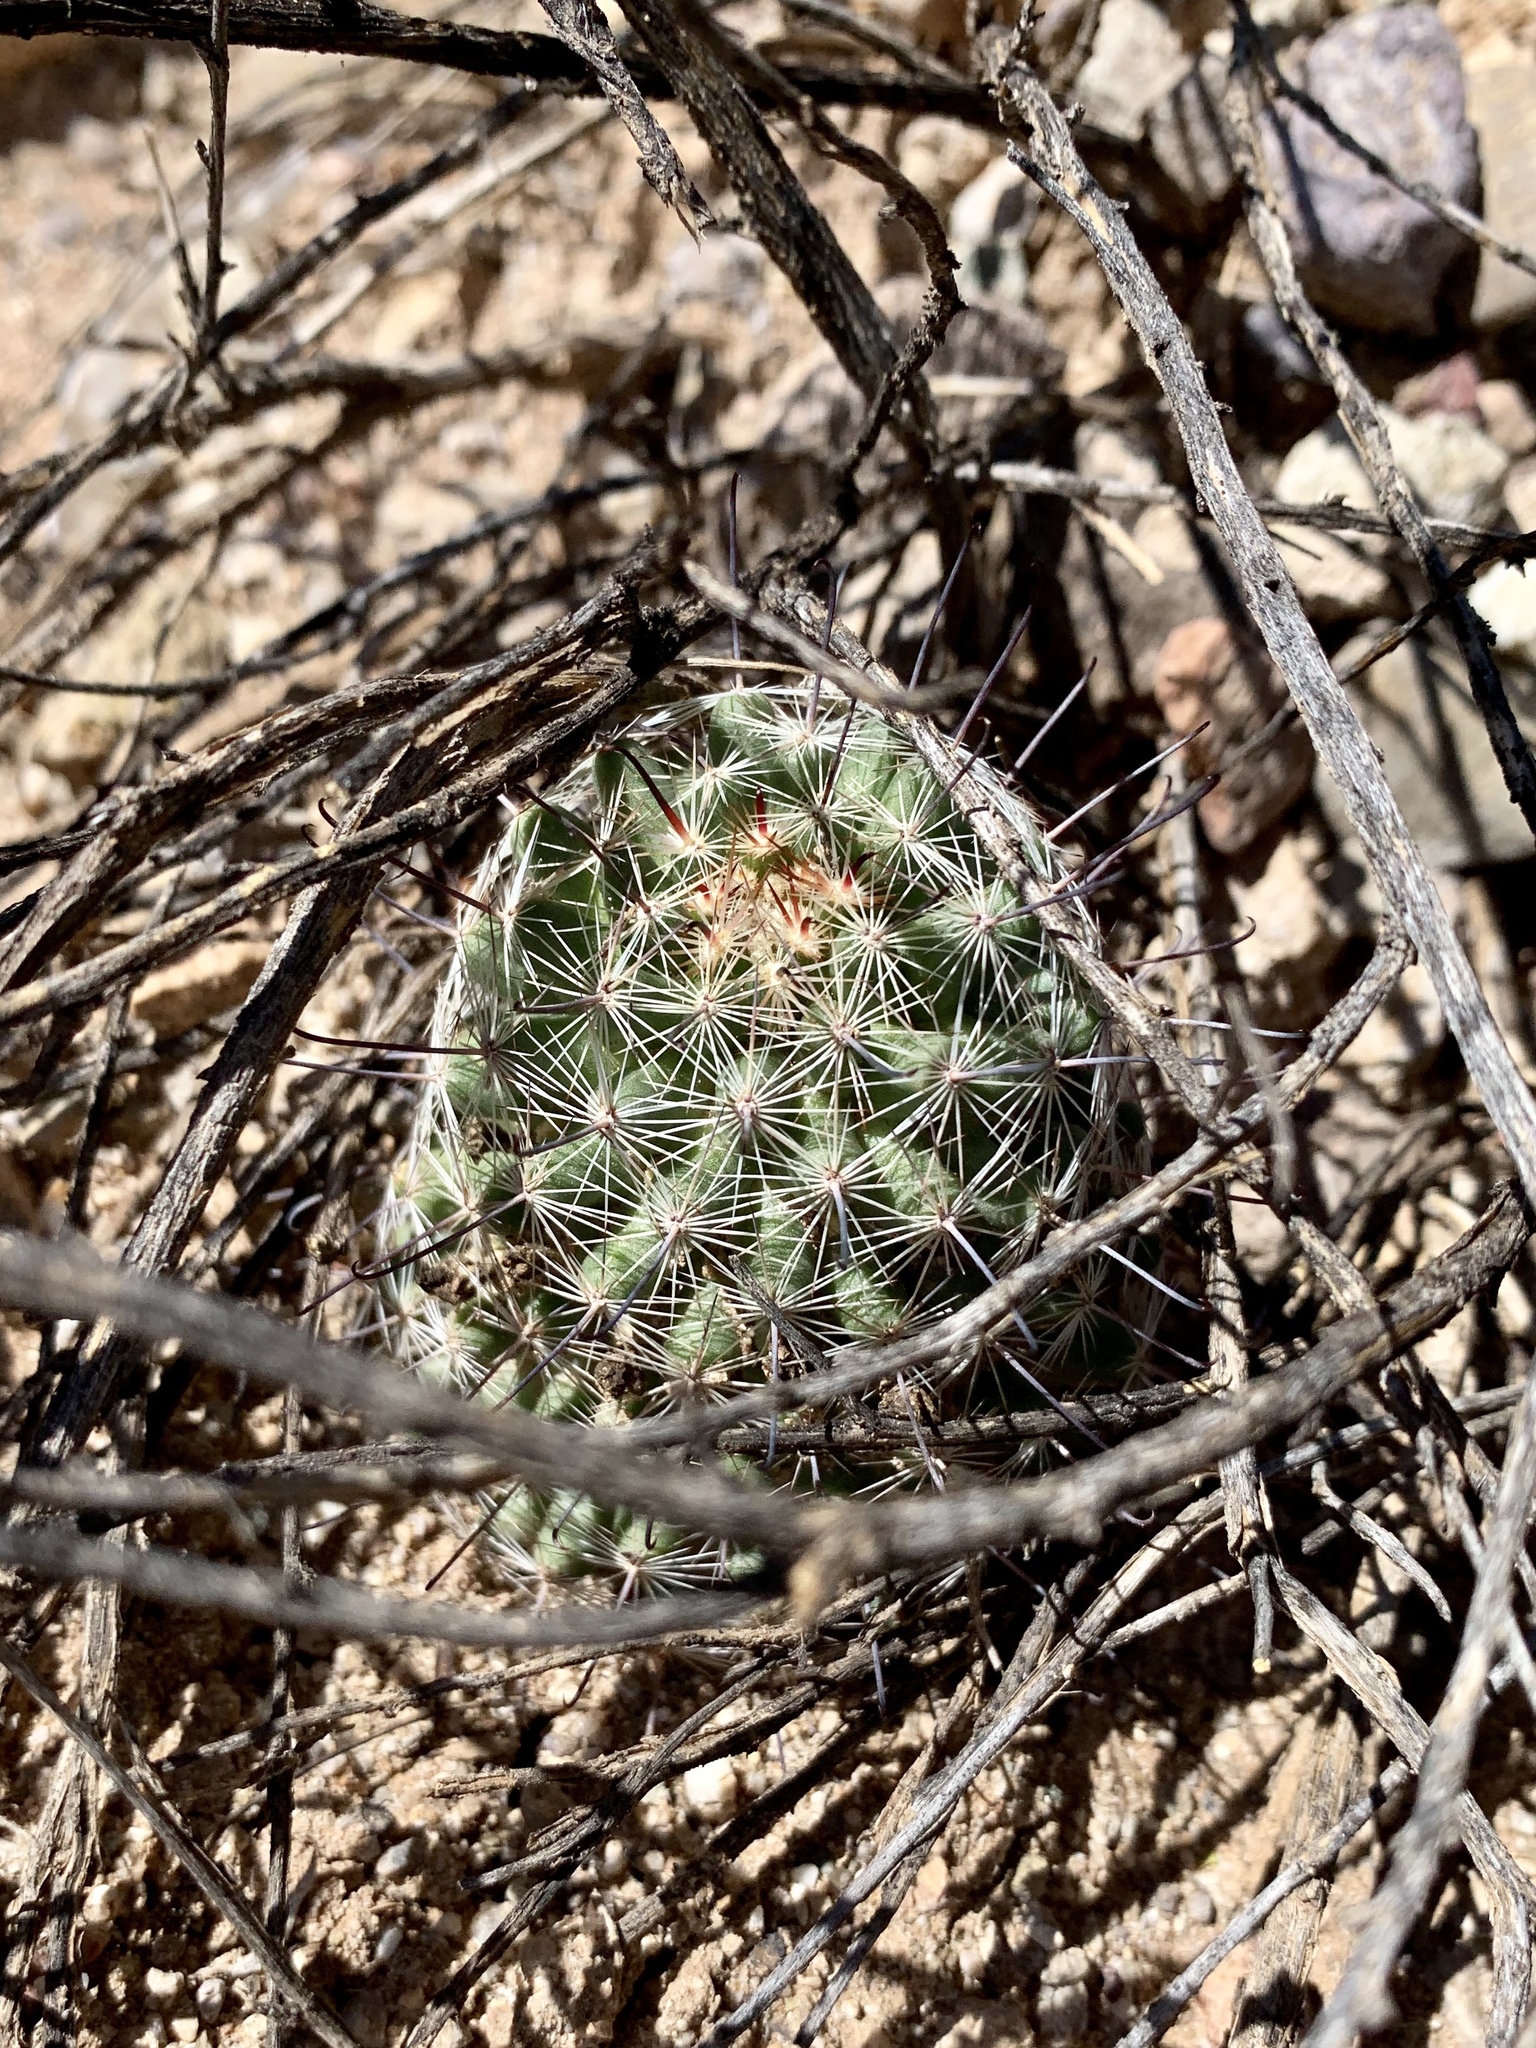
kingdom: Plantae
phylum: Tracheophyta
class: Magnoliopsida
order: Caryophyllales
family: Cactaceae
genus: Cochemiea
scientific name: Cochemiea grahamii
